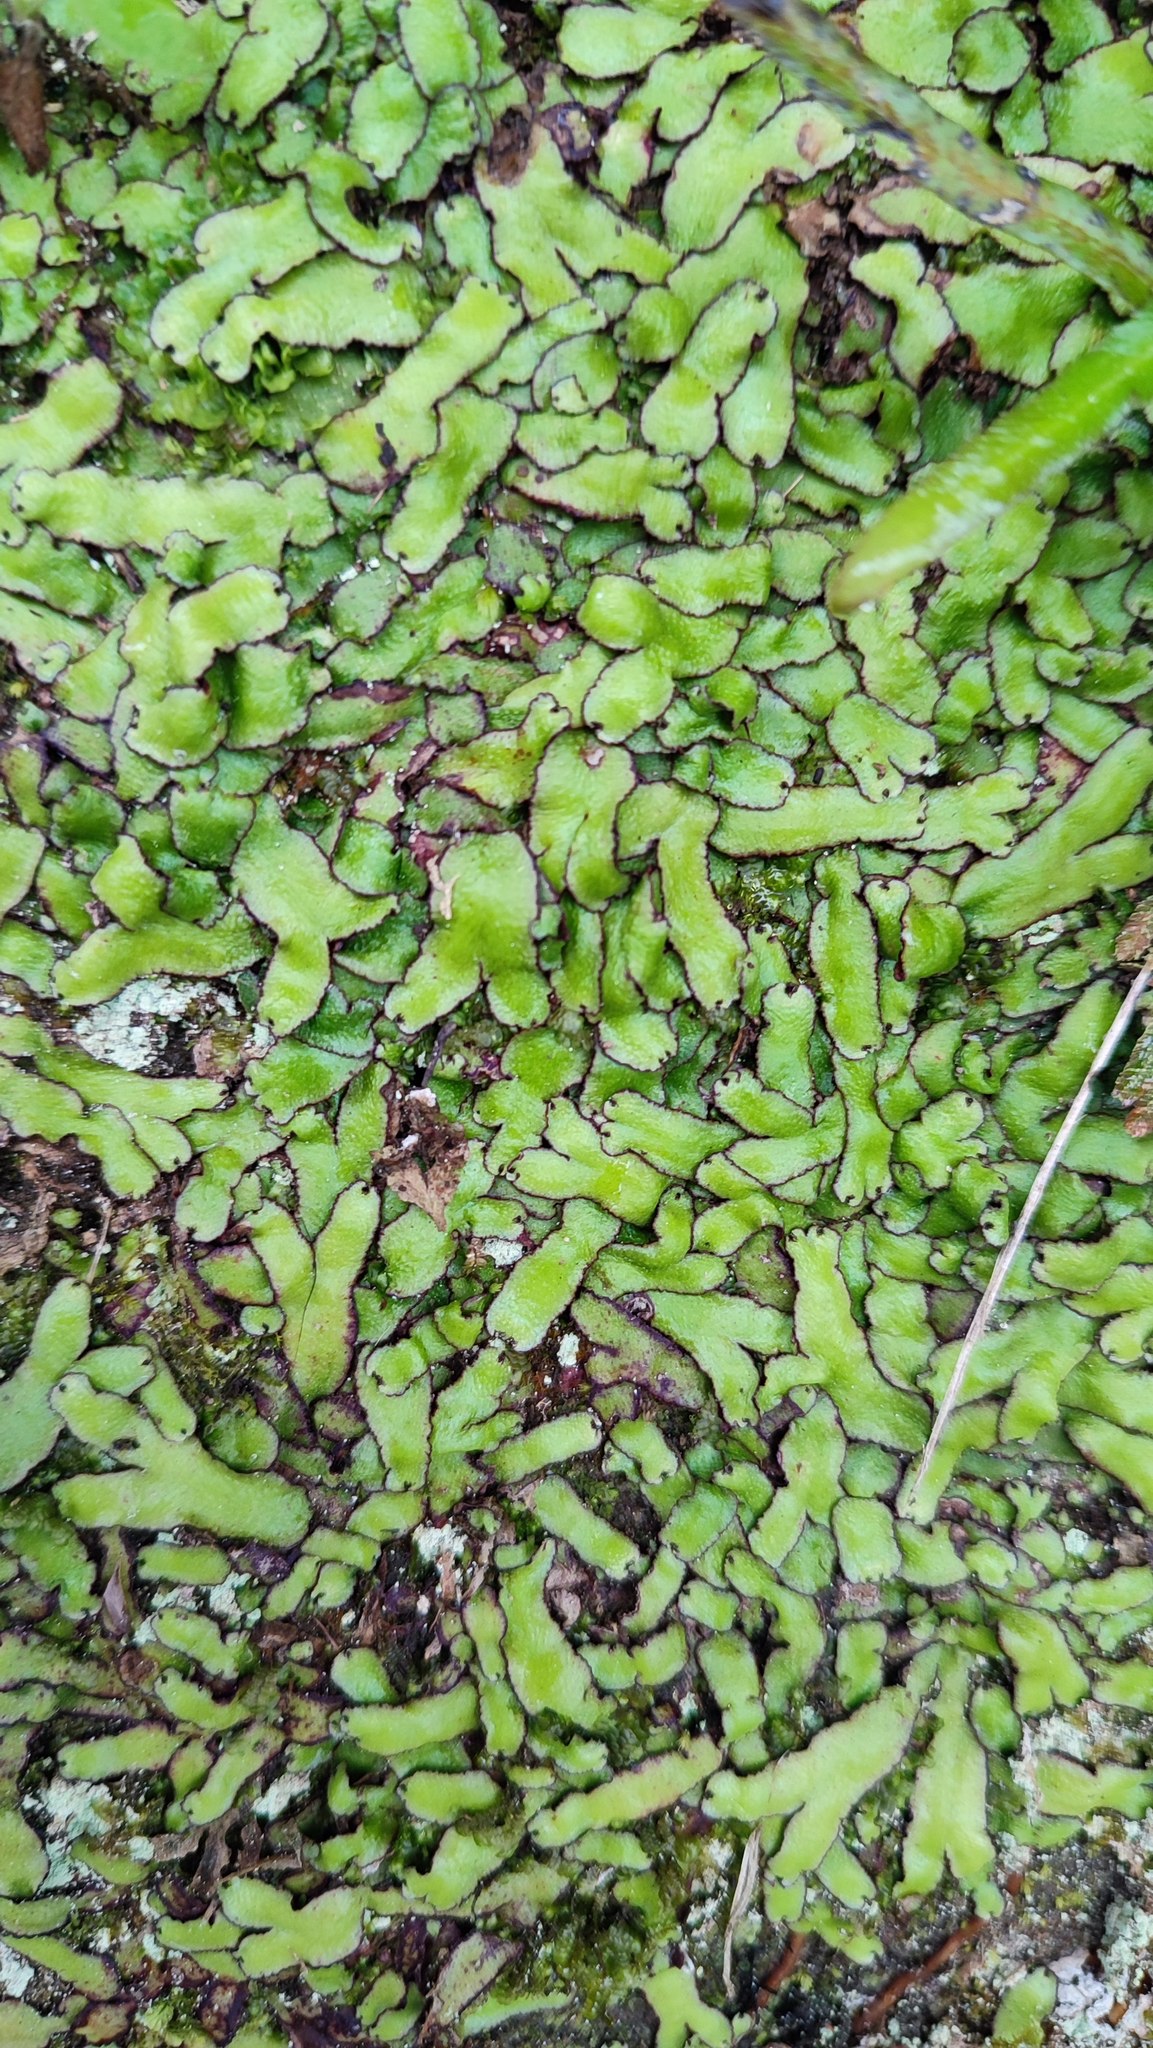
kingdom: Plantae
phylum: Marchantiophyta
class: Marchantiopsida
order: Marchantiales
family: Aytoniaceae
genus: Reboulia
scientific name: Reboulia hemisphaerica
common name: Purple-margined liverwort
